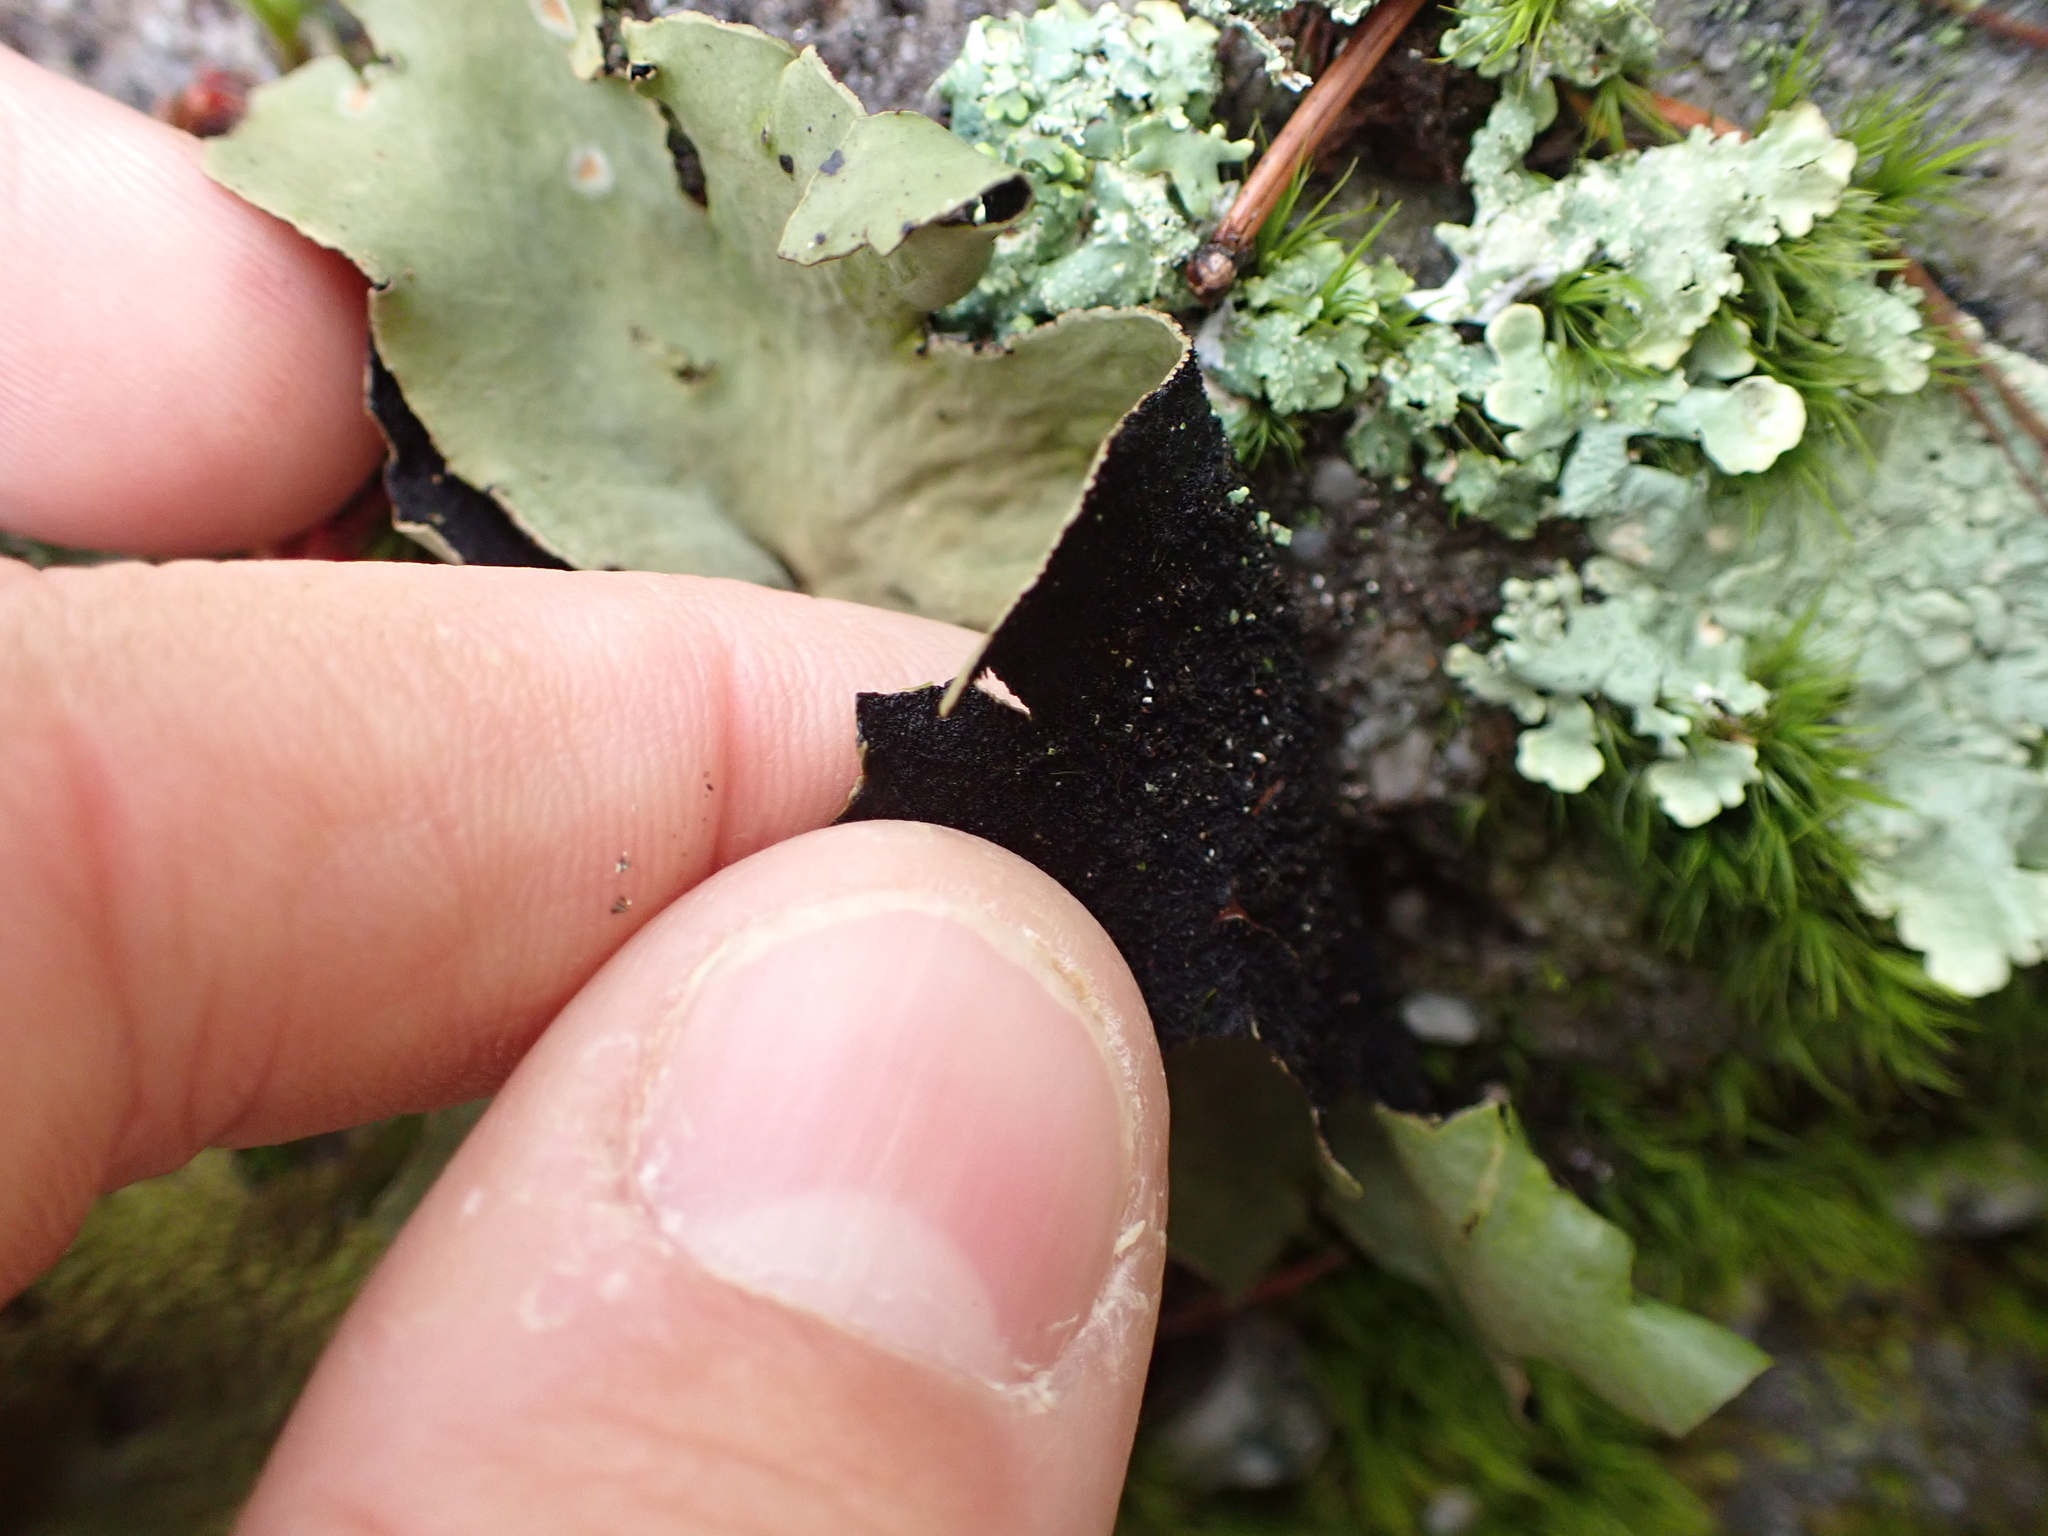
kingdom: Fungi
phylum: Ascomycota
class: Lecanoromycetes
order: Umbilicariales
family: Umbilicariaceae
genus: Umbilicaria
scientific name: Umbilicaria mammulata
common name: Smooth rock tripe
